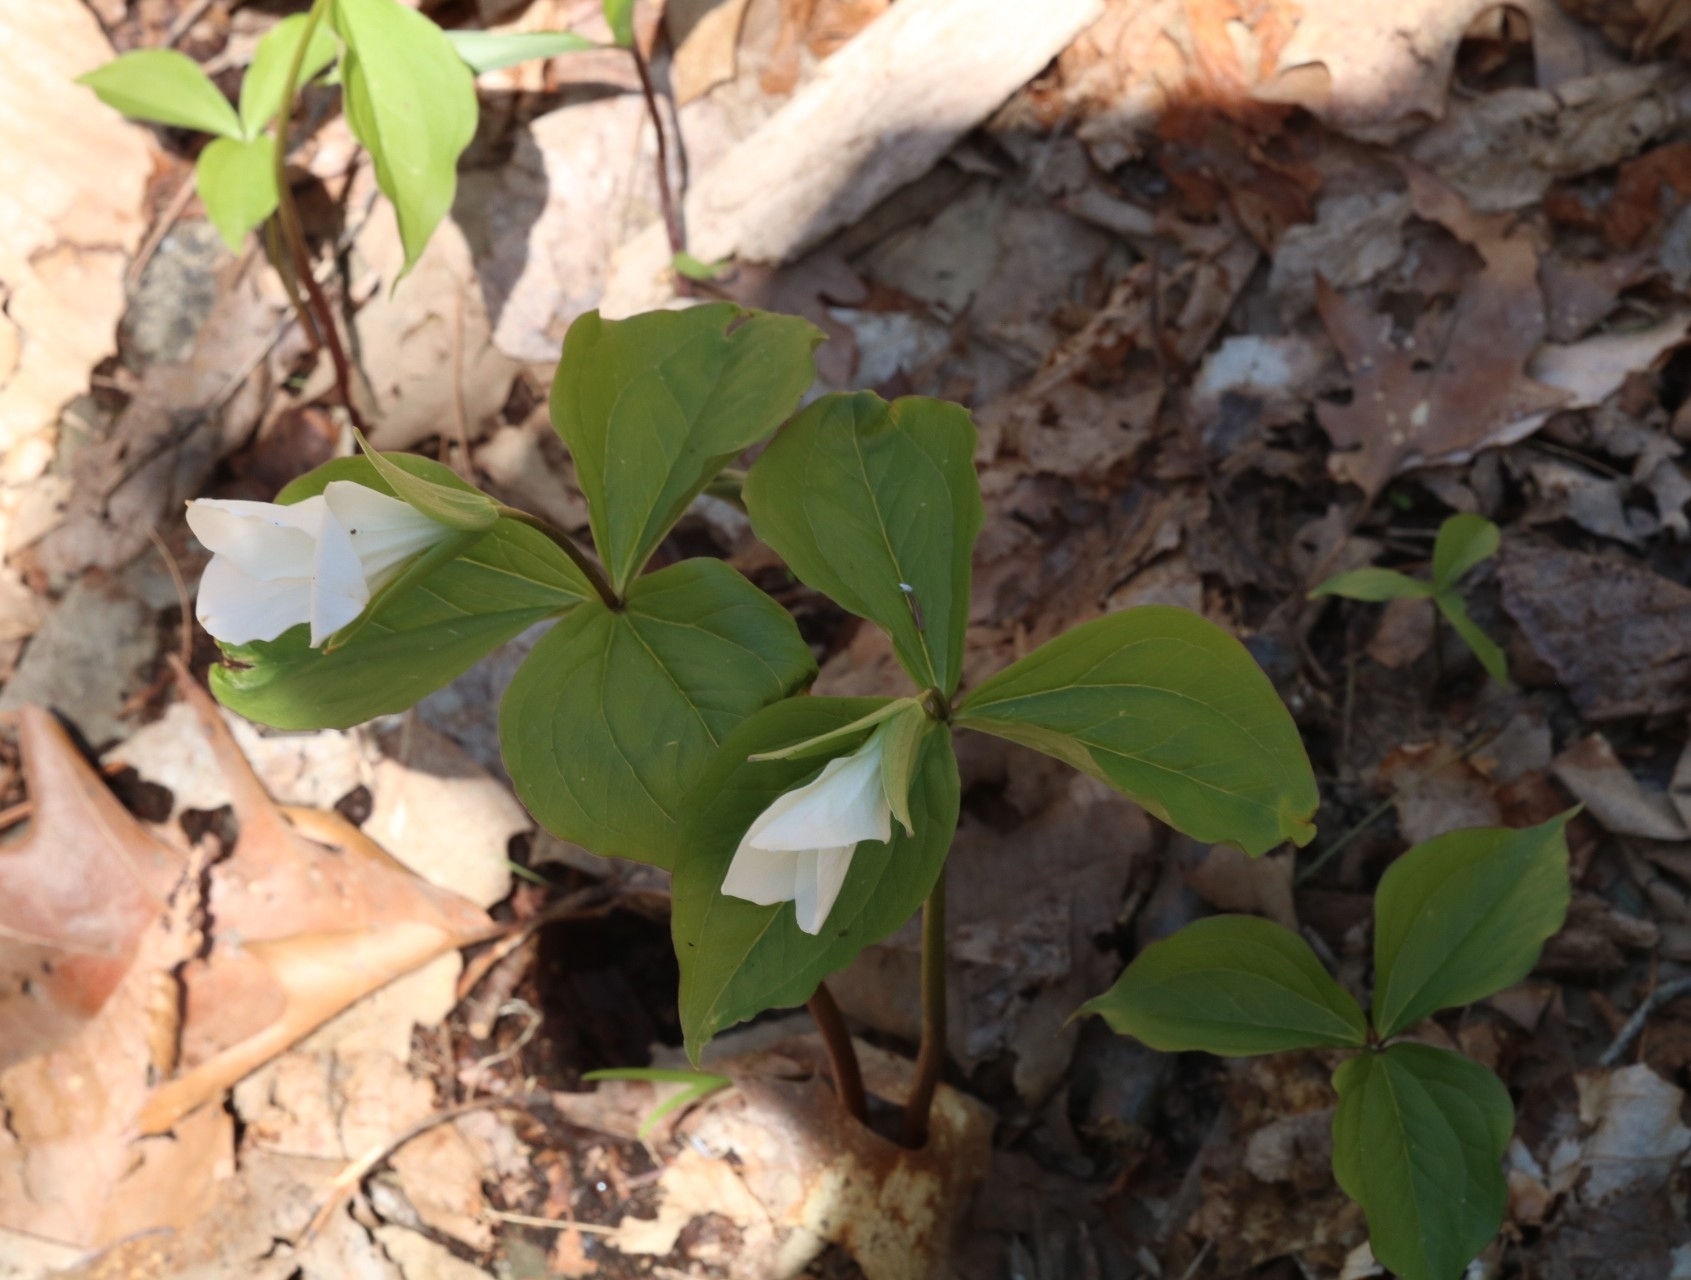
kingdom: Plantae
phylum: Tracheophyta
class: Liliopsida
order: Liliales
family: Melanthiaceae
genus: Trillium
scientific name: Trillium grandiflorum
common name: Great white trillium
